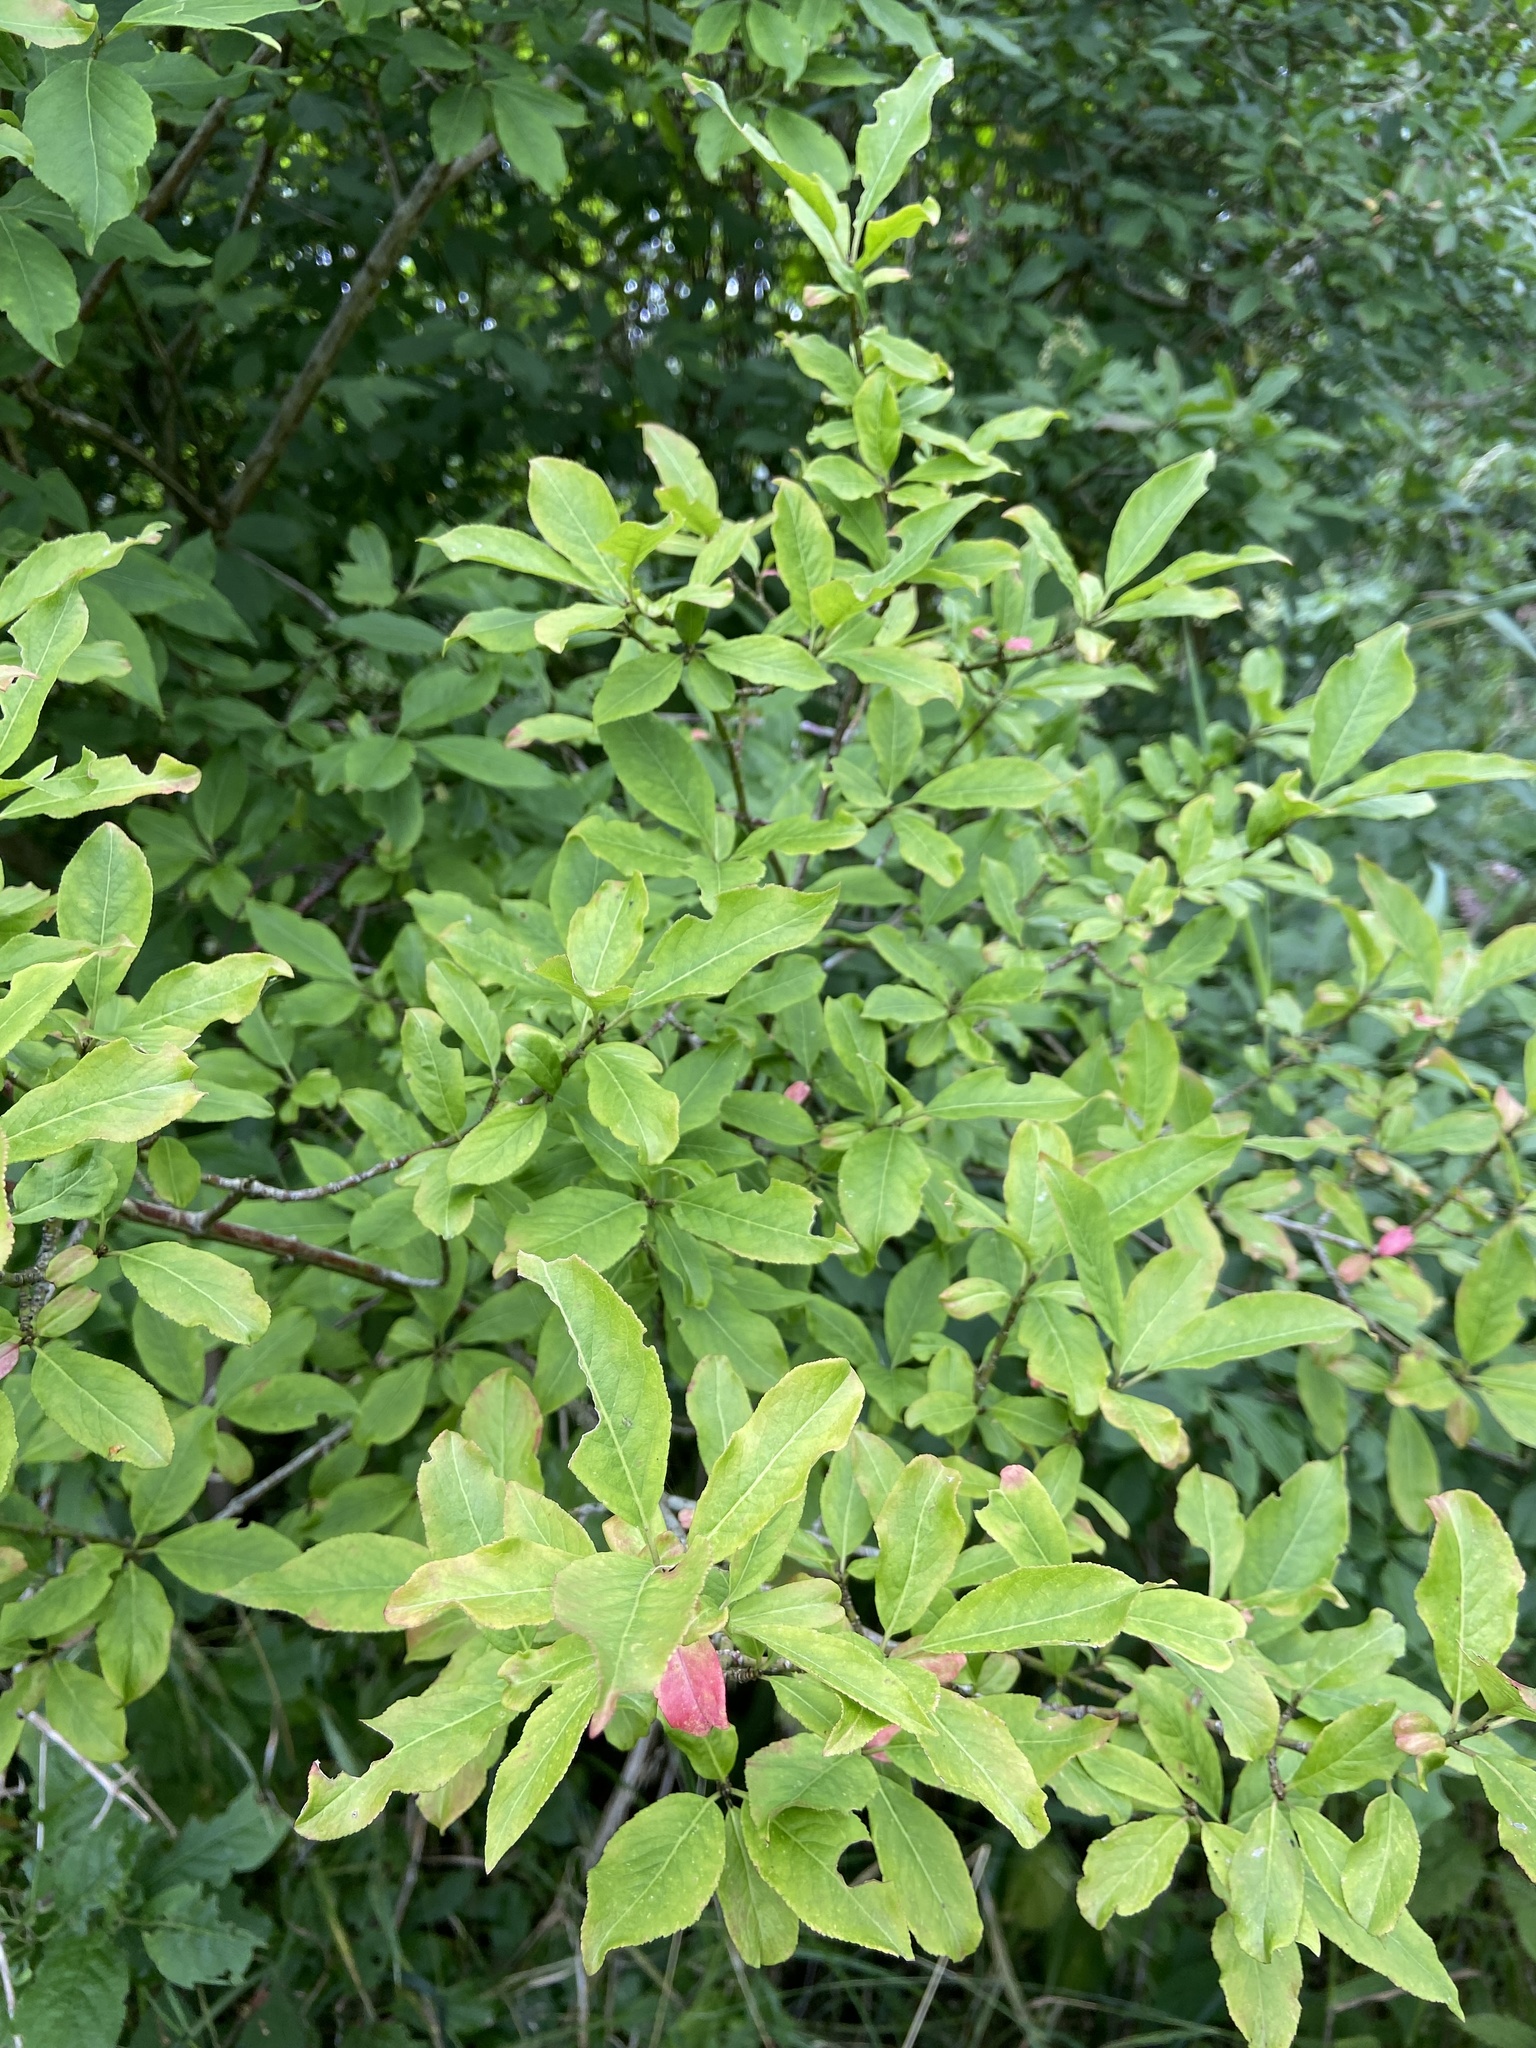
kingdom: Plantae
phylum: Tracheophyta
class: Magnoliopsida
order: Celastrales
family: Celastraceae
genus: Euonymus
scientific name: Euonymus europaeus
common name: Spindle
